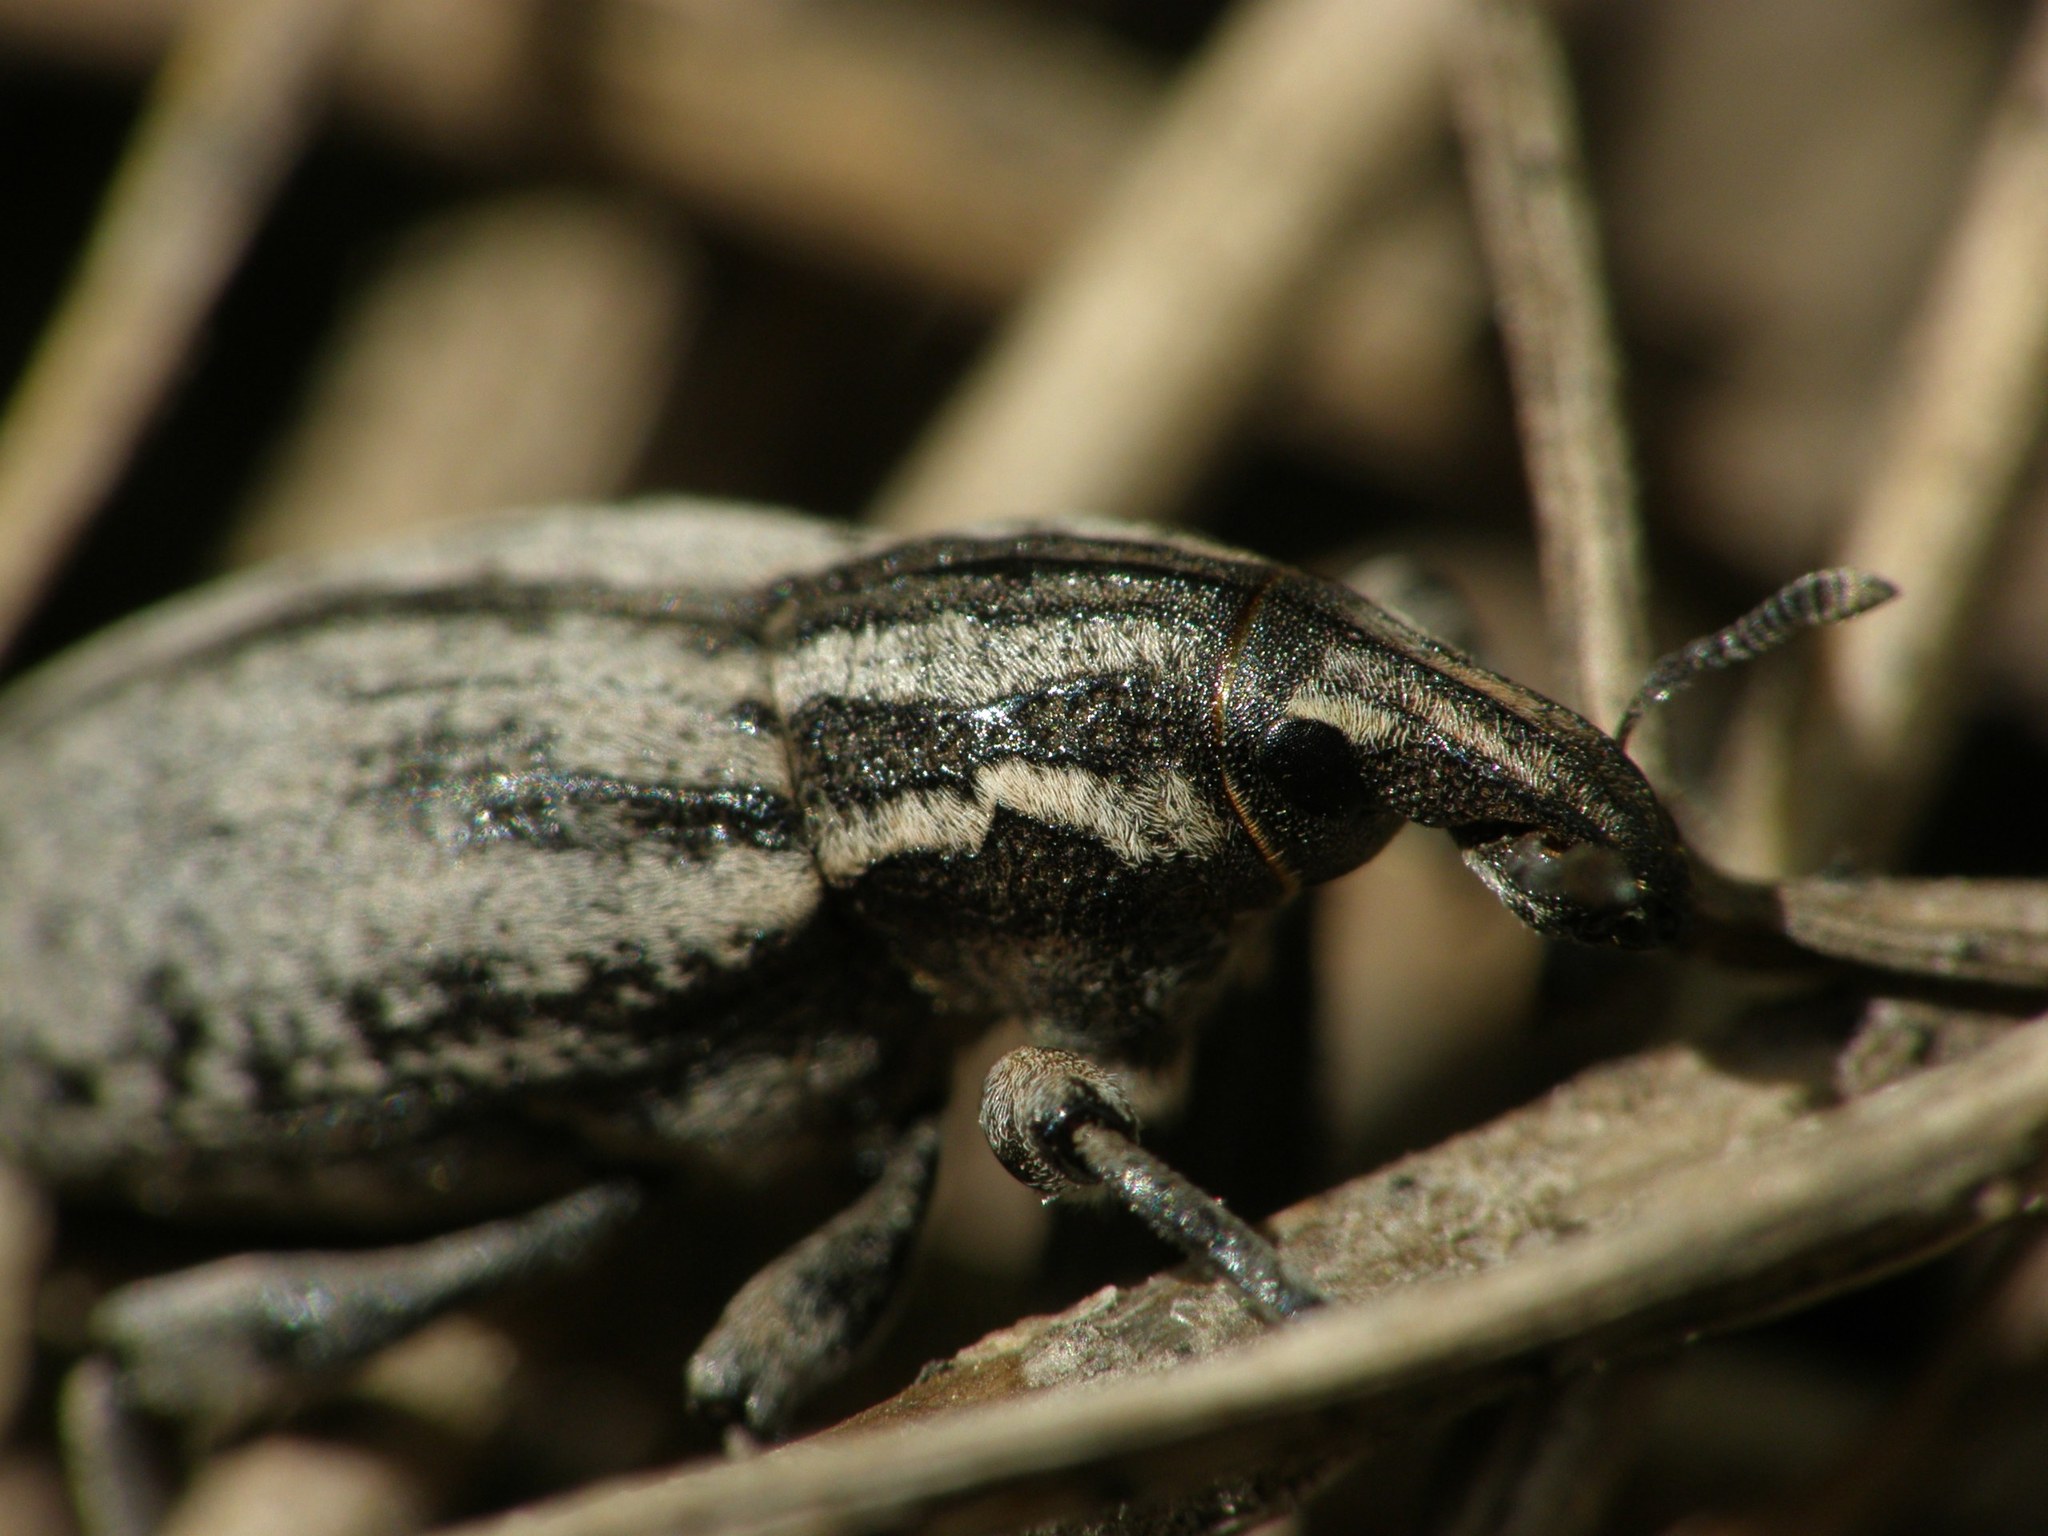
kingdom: Animalia
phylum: Arthropoda
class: Insecta
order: Coleoptera
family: Curculionidae
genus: Pseudocleonus
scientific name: Pseudocleonus cinereus
